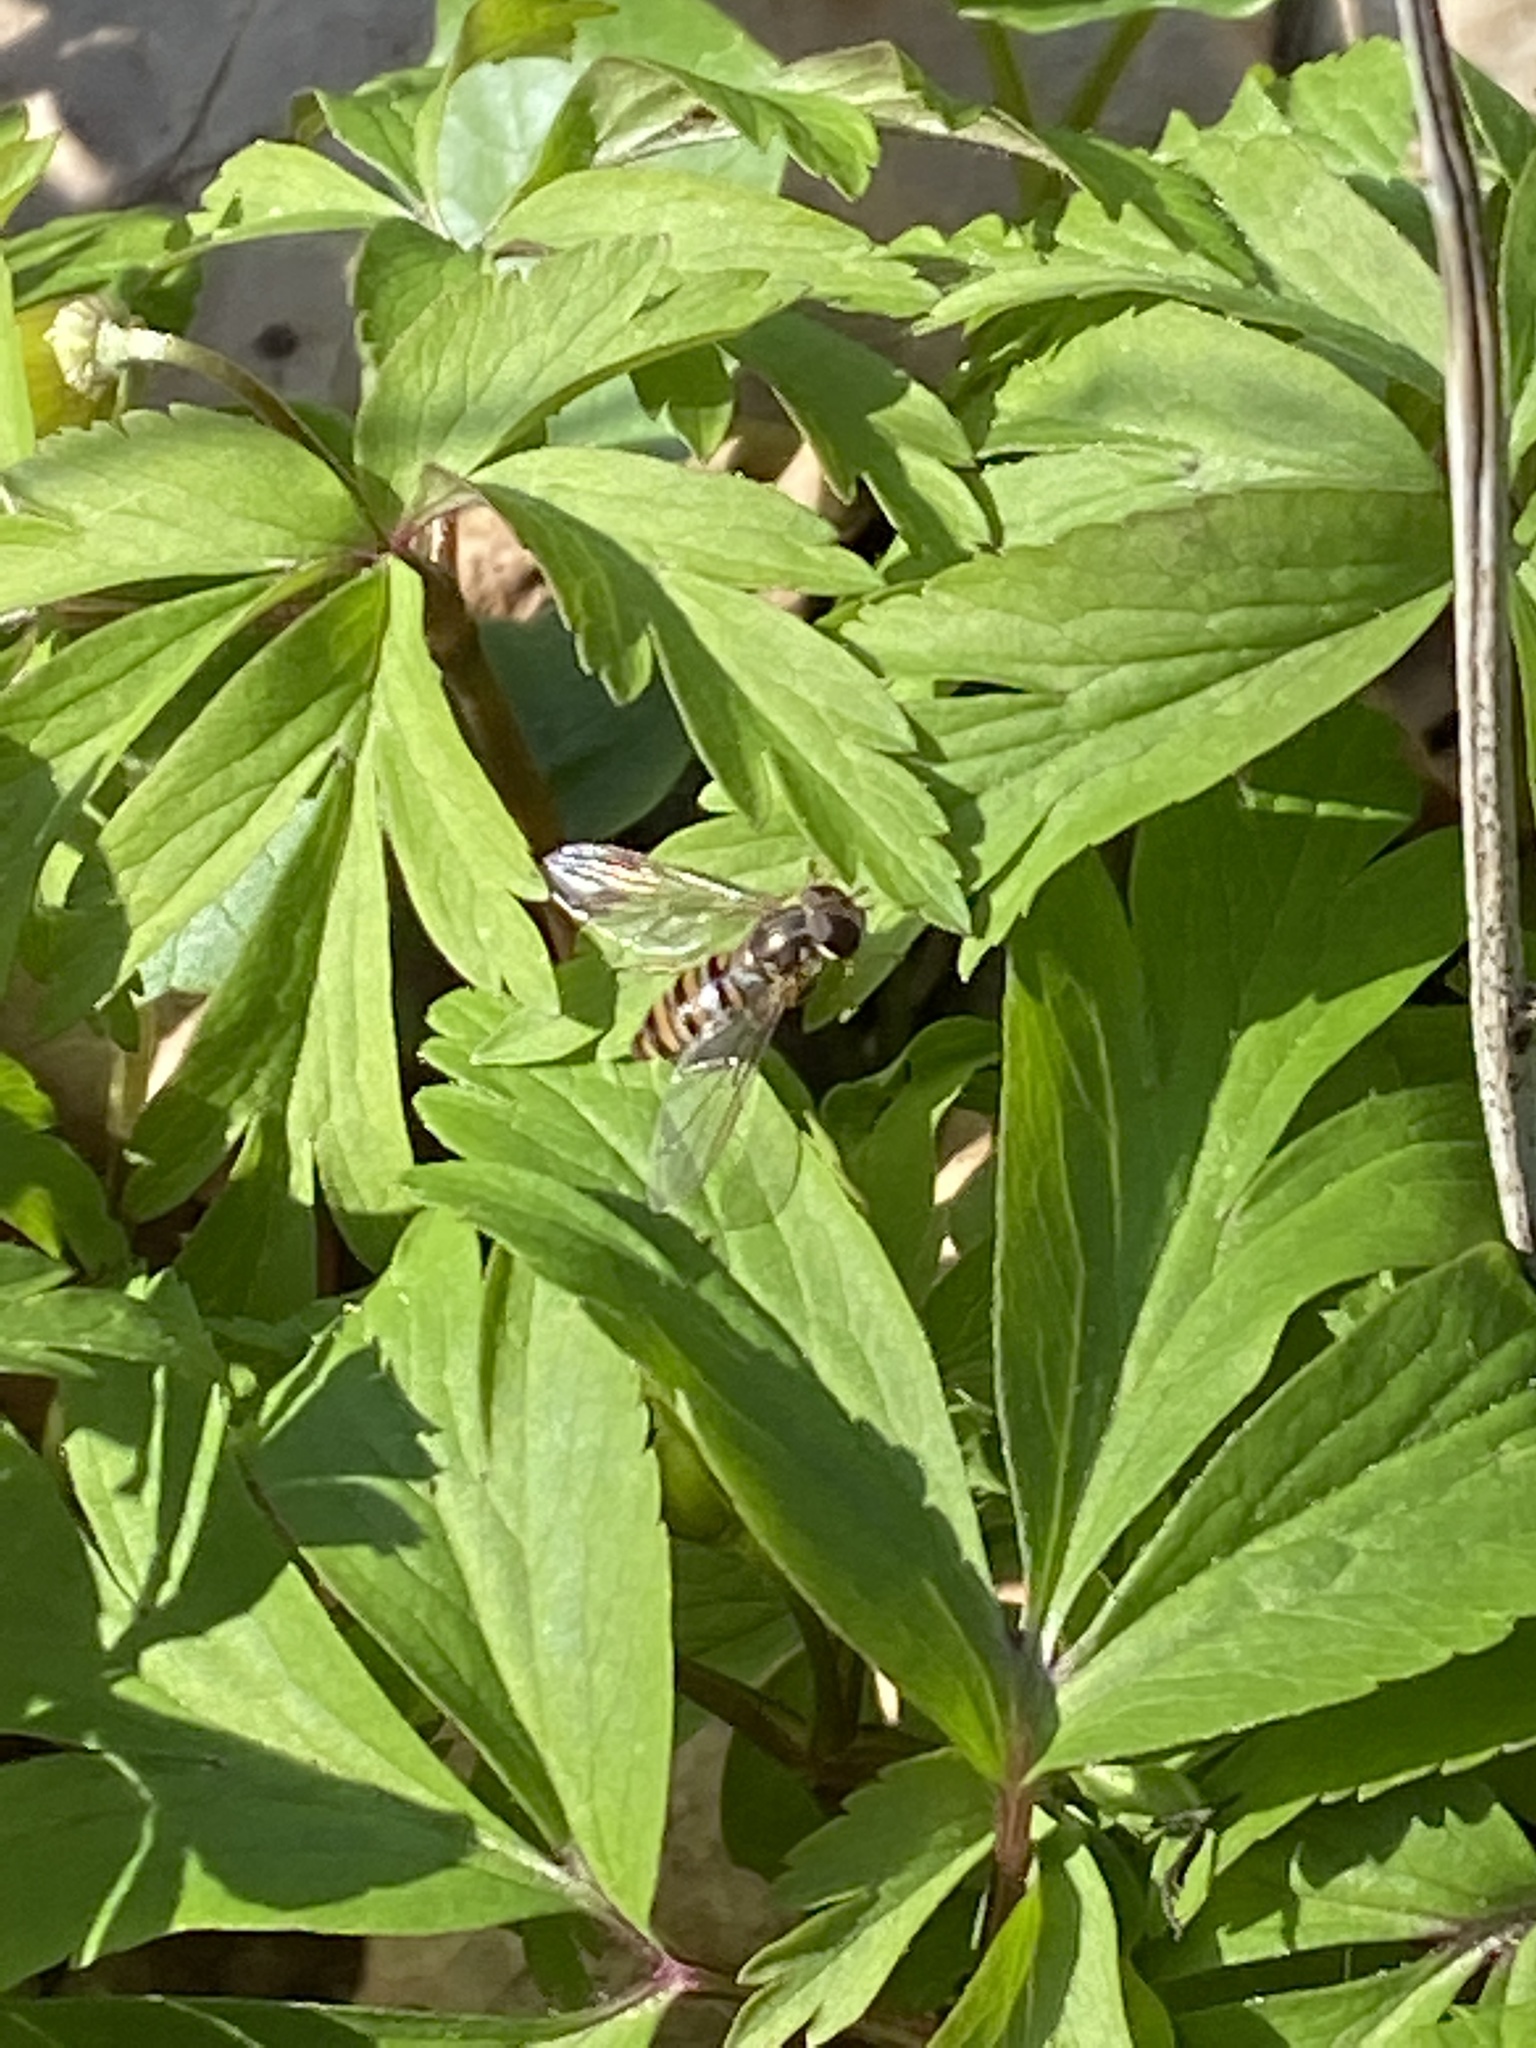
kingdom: Animalia
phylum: Arthropoda
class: Insecta
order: Diptera
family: Syrphidae
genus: Episyrphus
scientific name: Episyrphus balteatus
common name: Marmalade hoverfly
